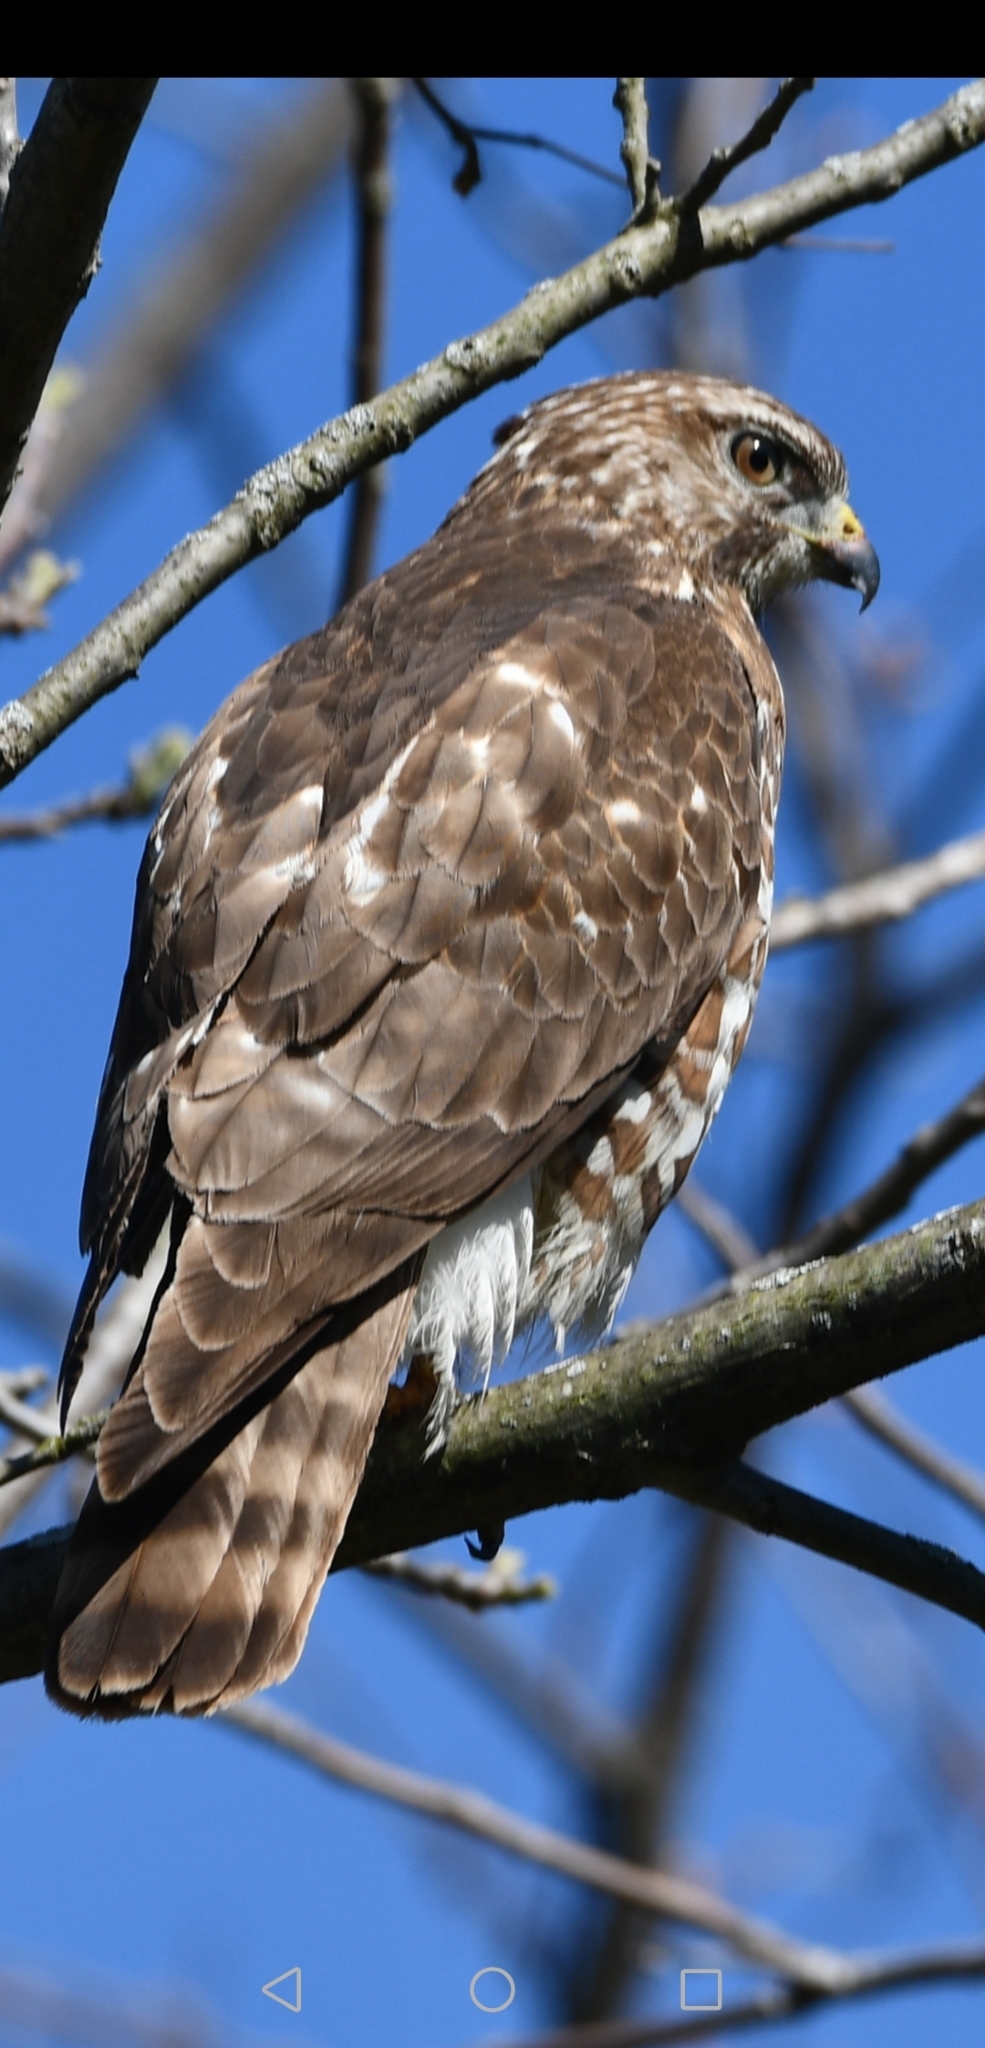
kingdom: Animalia
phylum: Chordata
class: Aves
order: Accipitriformes
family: Accipitridae
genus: Buteo
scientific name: Buteo platypterus
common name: Broad-winged hawk
